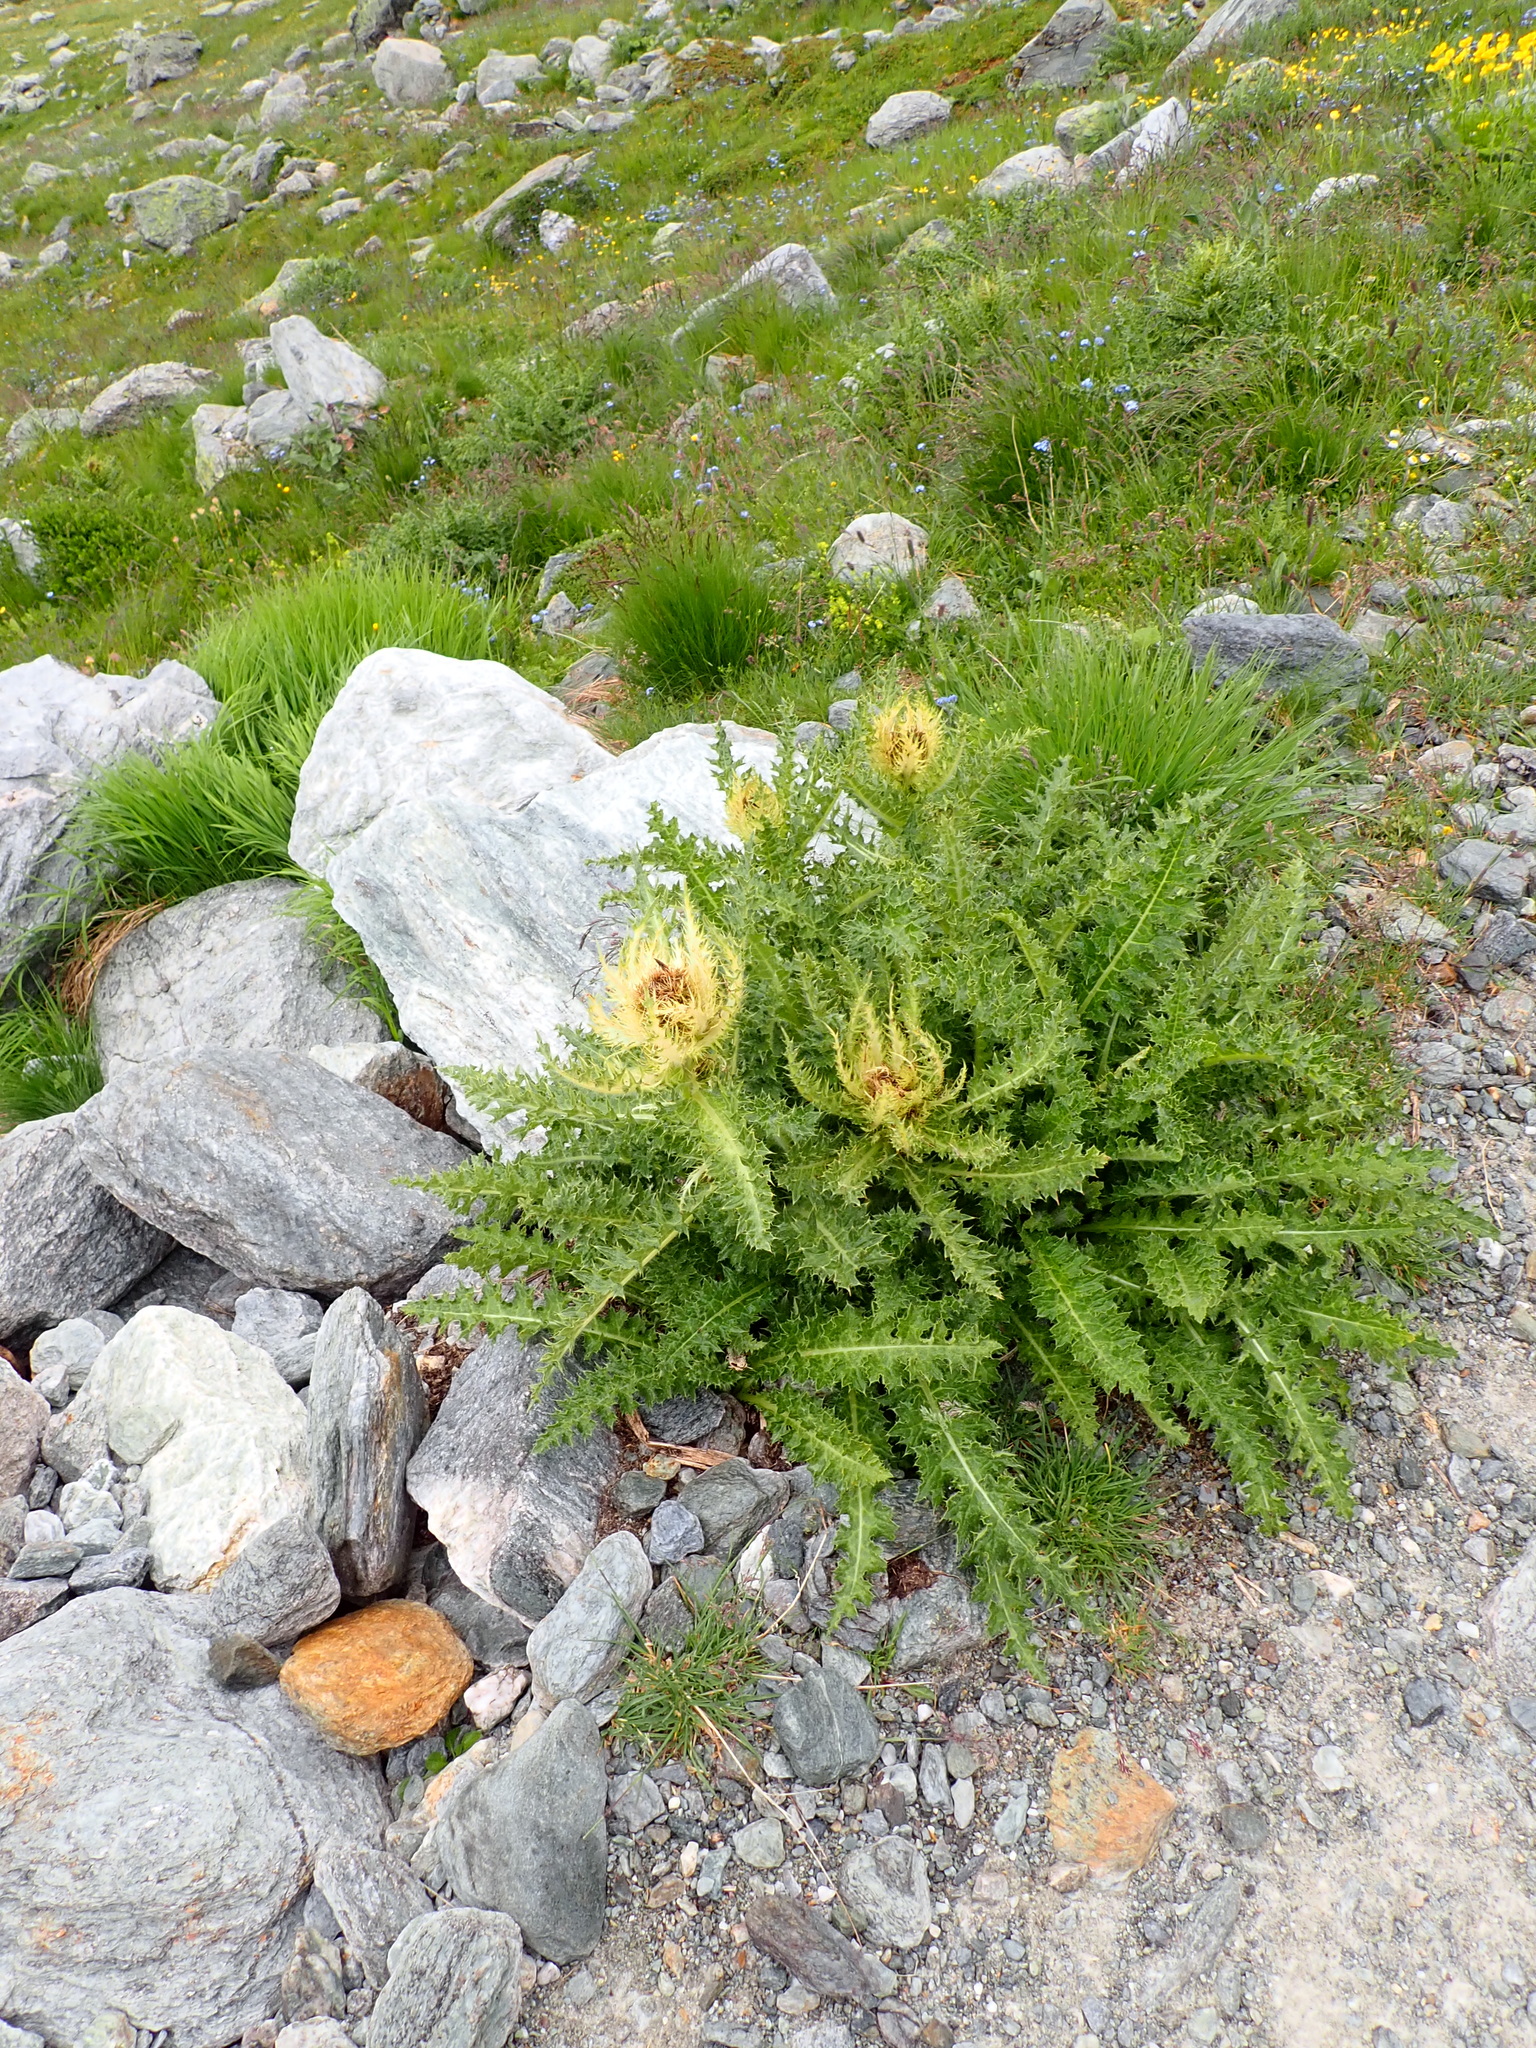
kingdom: Plantae
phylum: Tracheophyta
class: Magnoliopsida
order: Asterales
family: Asteraceae
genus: Cirsium
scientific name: Cirsium spinosissimum
